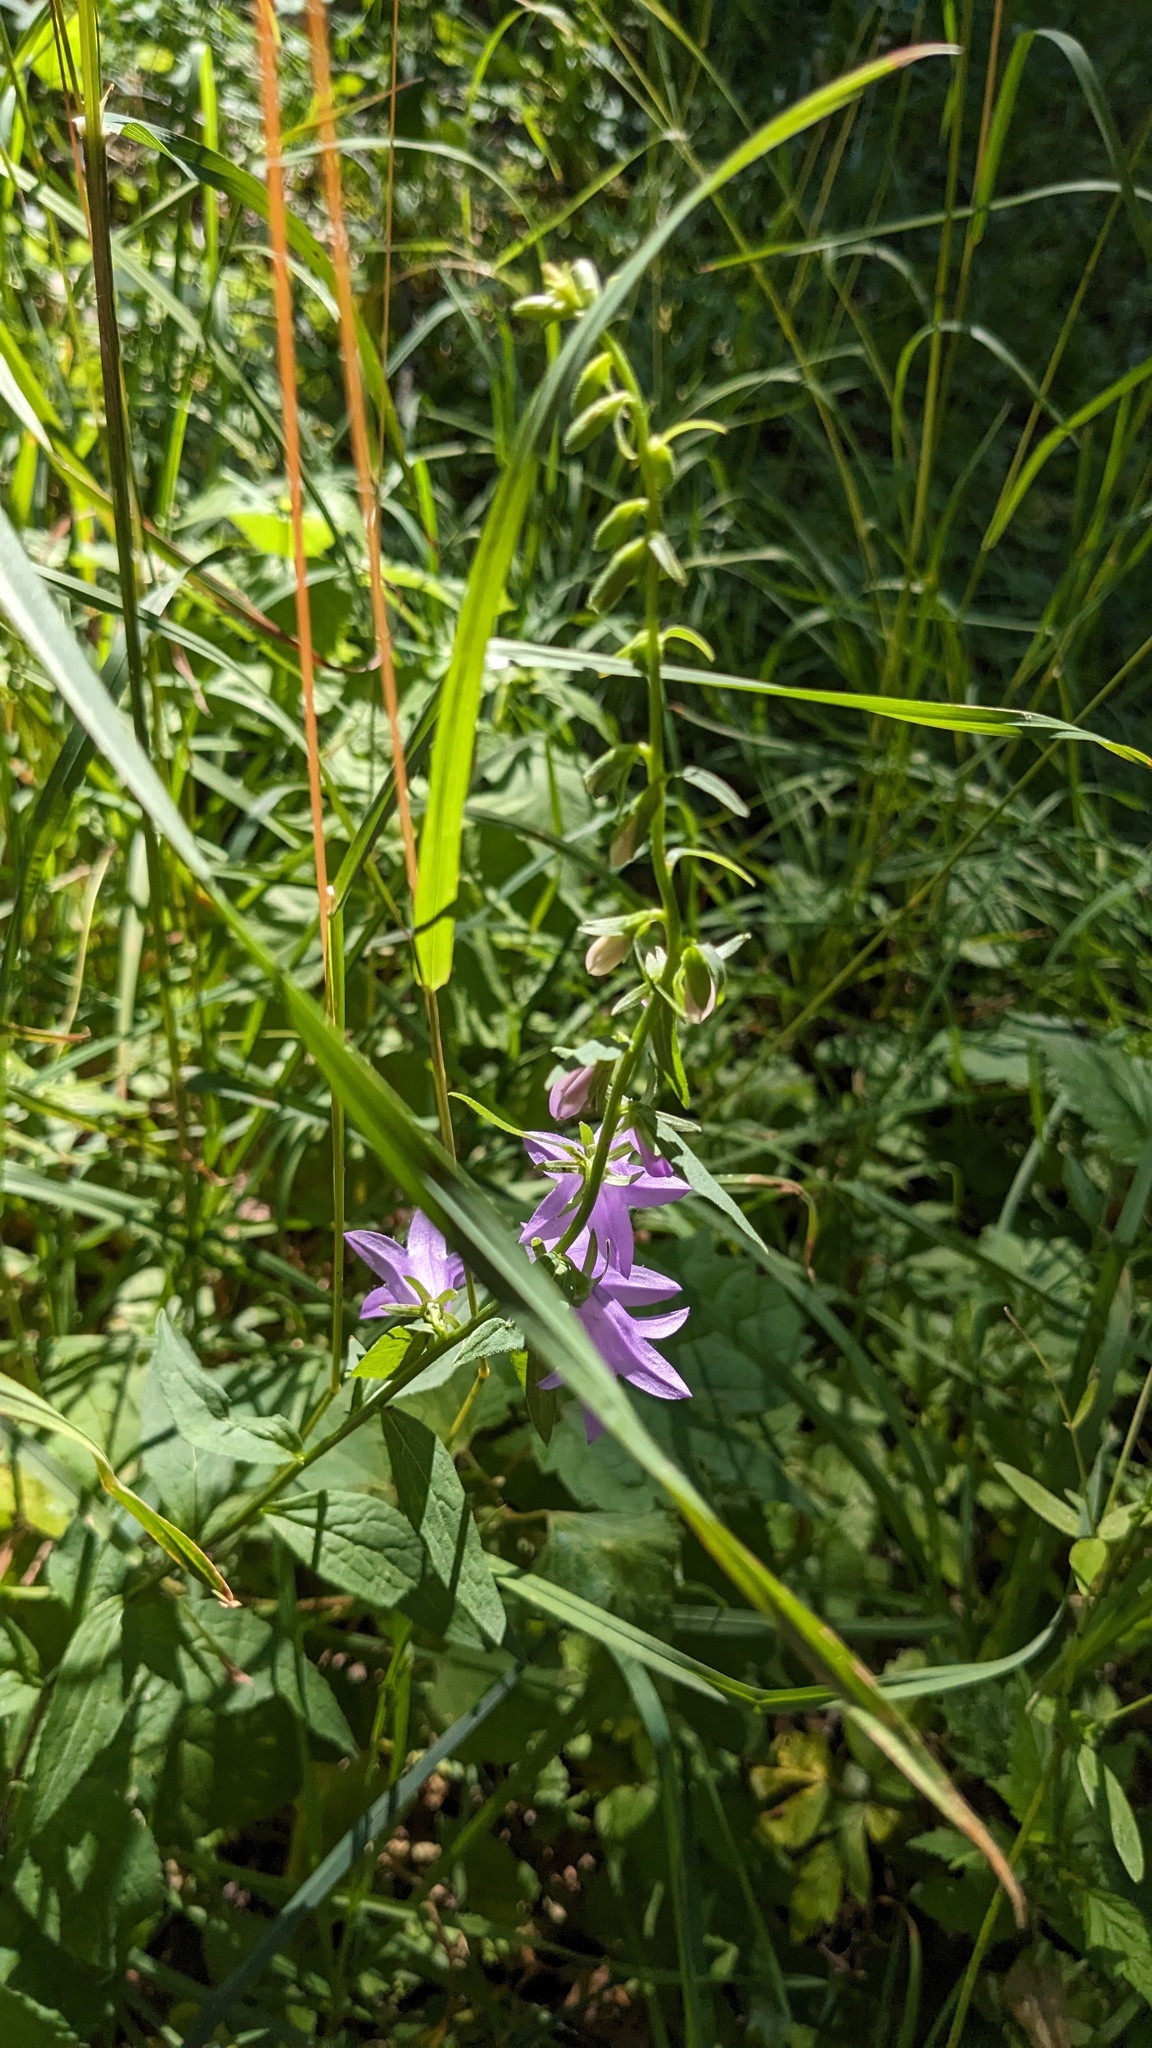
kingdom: Plantae
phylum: Tracheophyta
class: Magnoliopsida
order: Asterales
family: Campanulaceae
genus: Campanula
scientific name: Campanula rapunculoides
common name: Creeping bellflower
